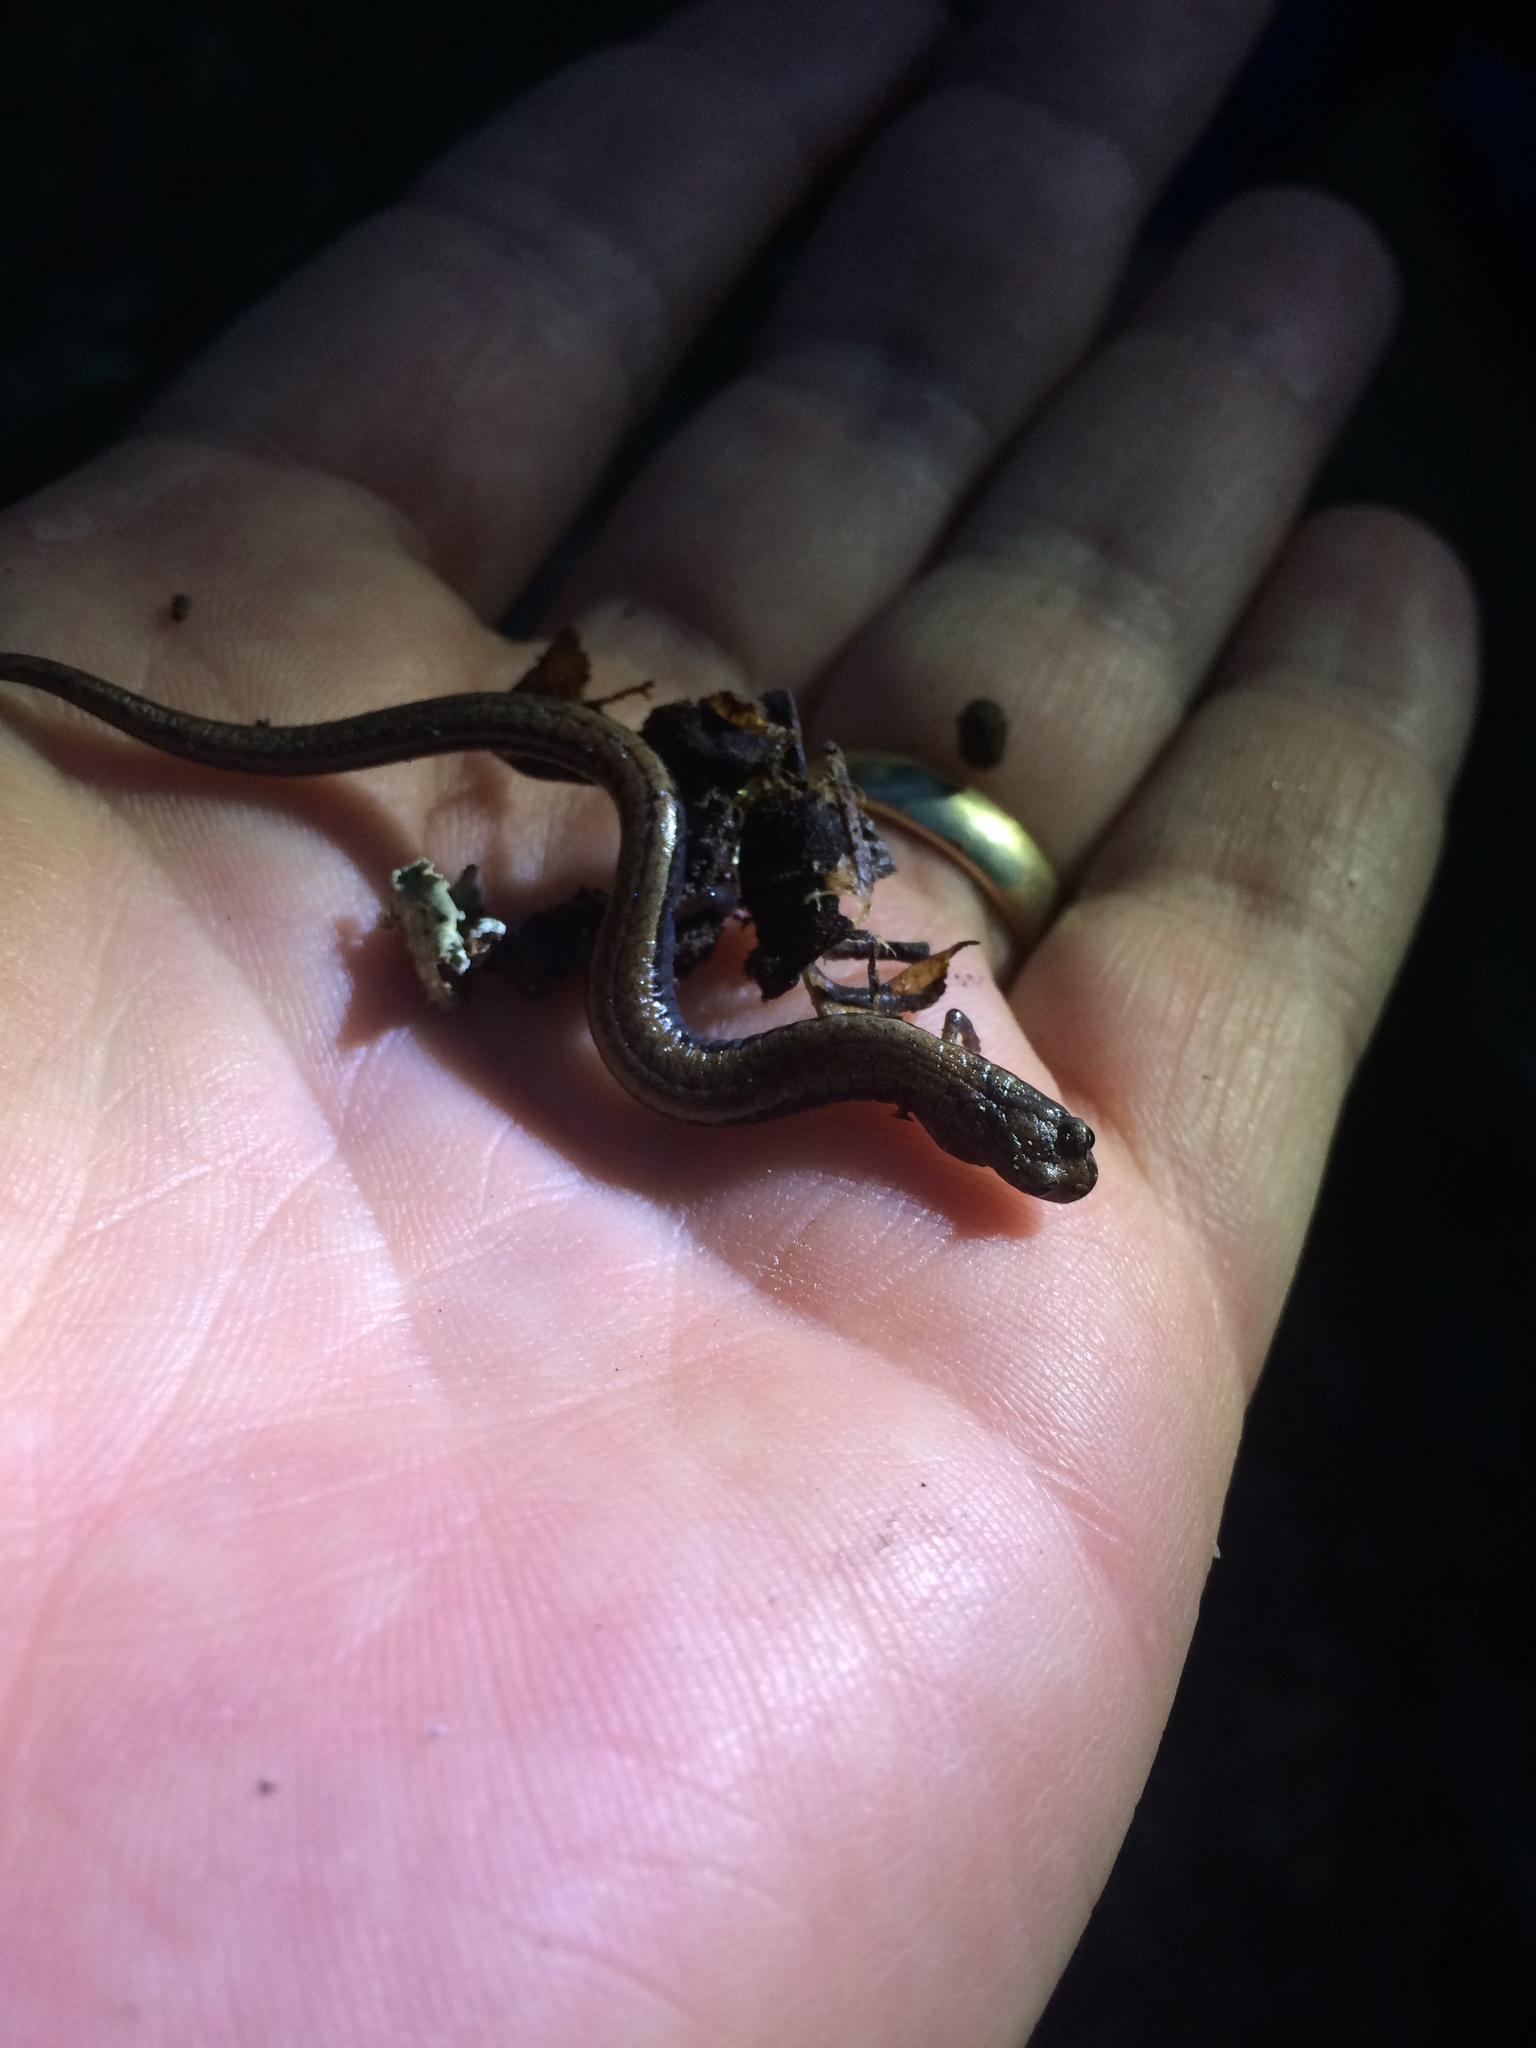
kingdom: Animalia
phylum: Chordata
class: Amphibia
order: Caudata
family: Plethodontidae
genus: Batrachoseps
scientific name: Batrachoseps attenuatus
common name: California slender salamander
